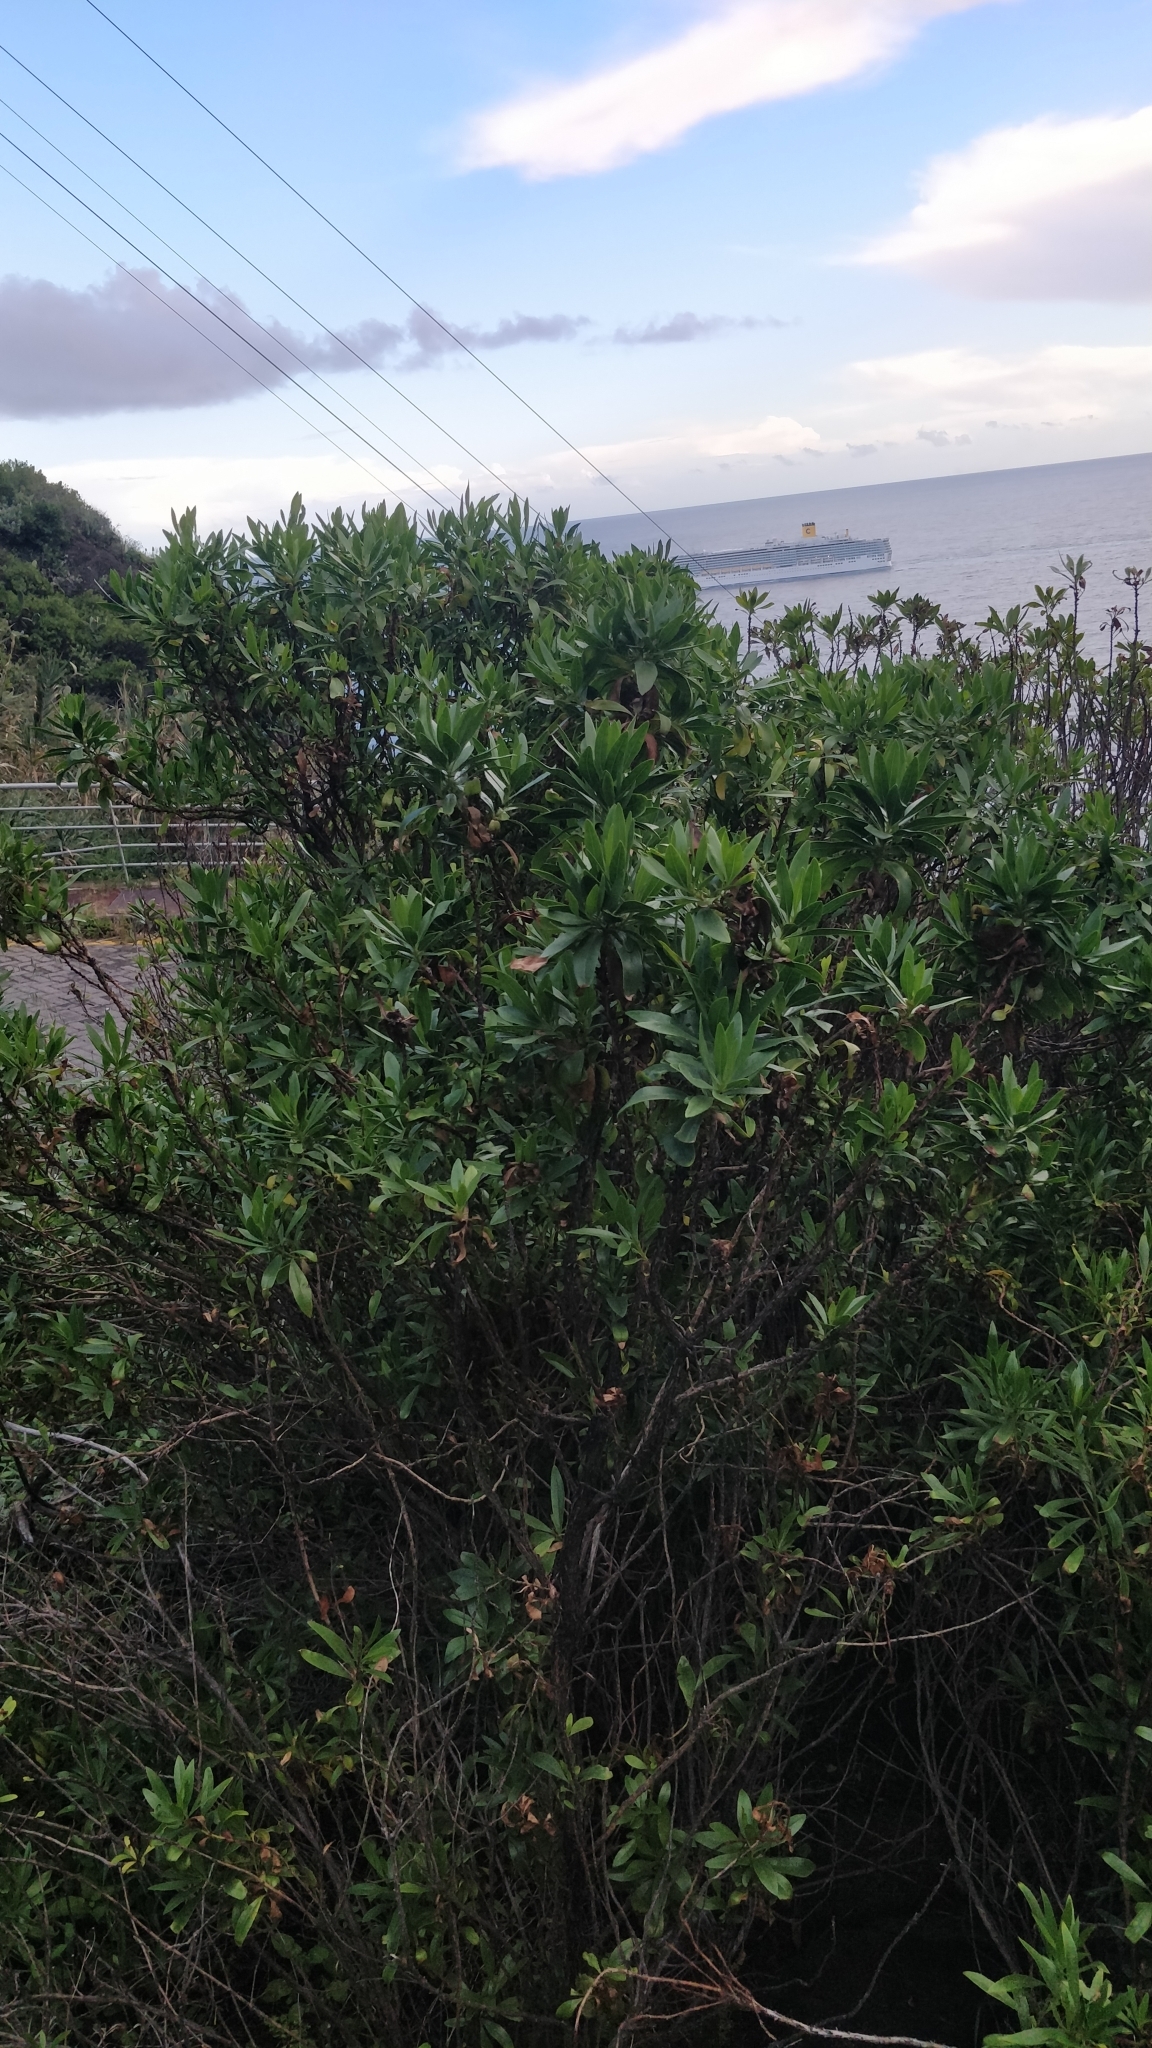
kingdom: Plantae
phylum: Tracheophyta
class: Magnoliopsida
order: Lamiales
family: Plantaginaceae
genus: Globularia
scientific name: Globularia salicina
